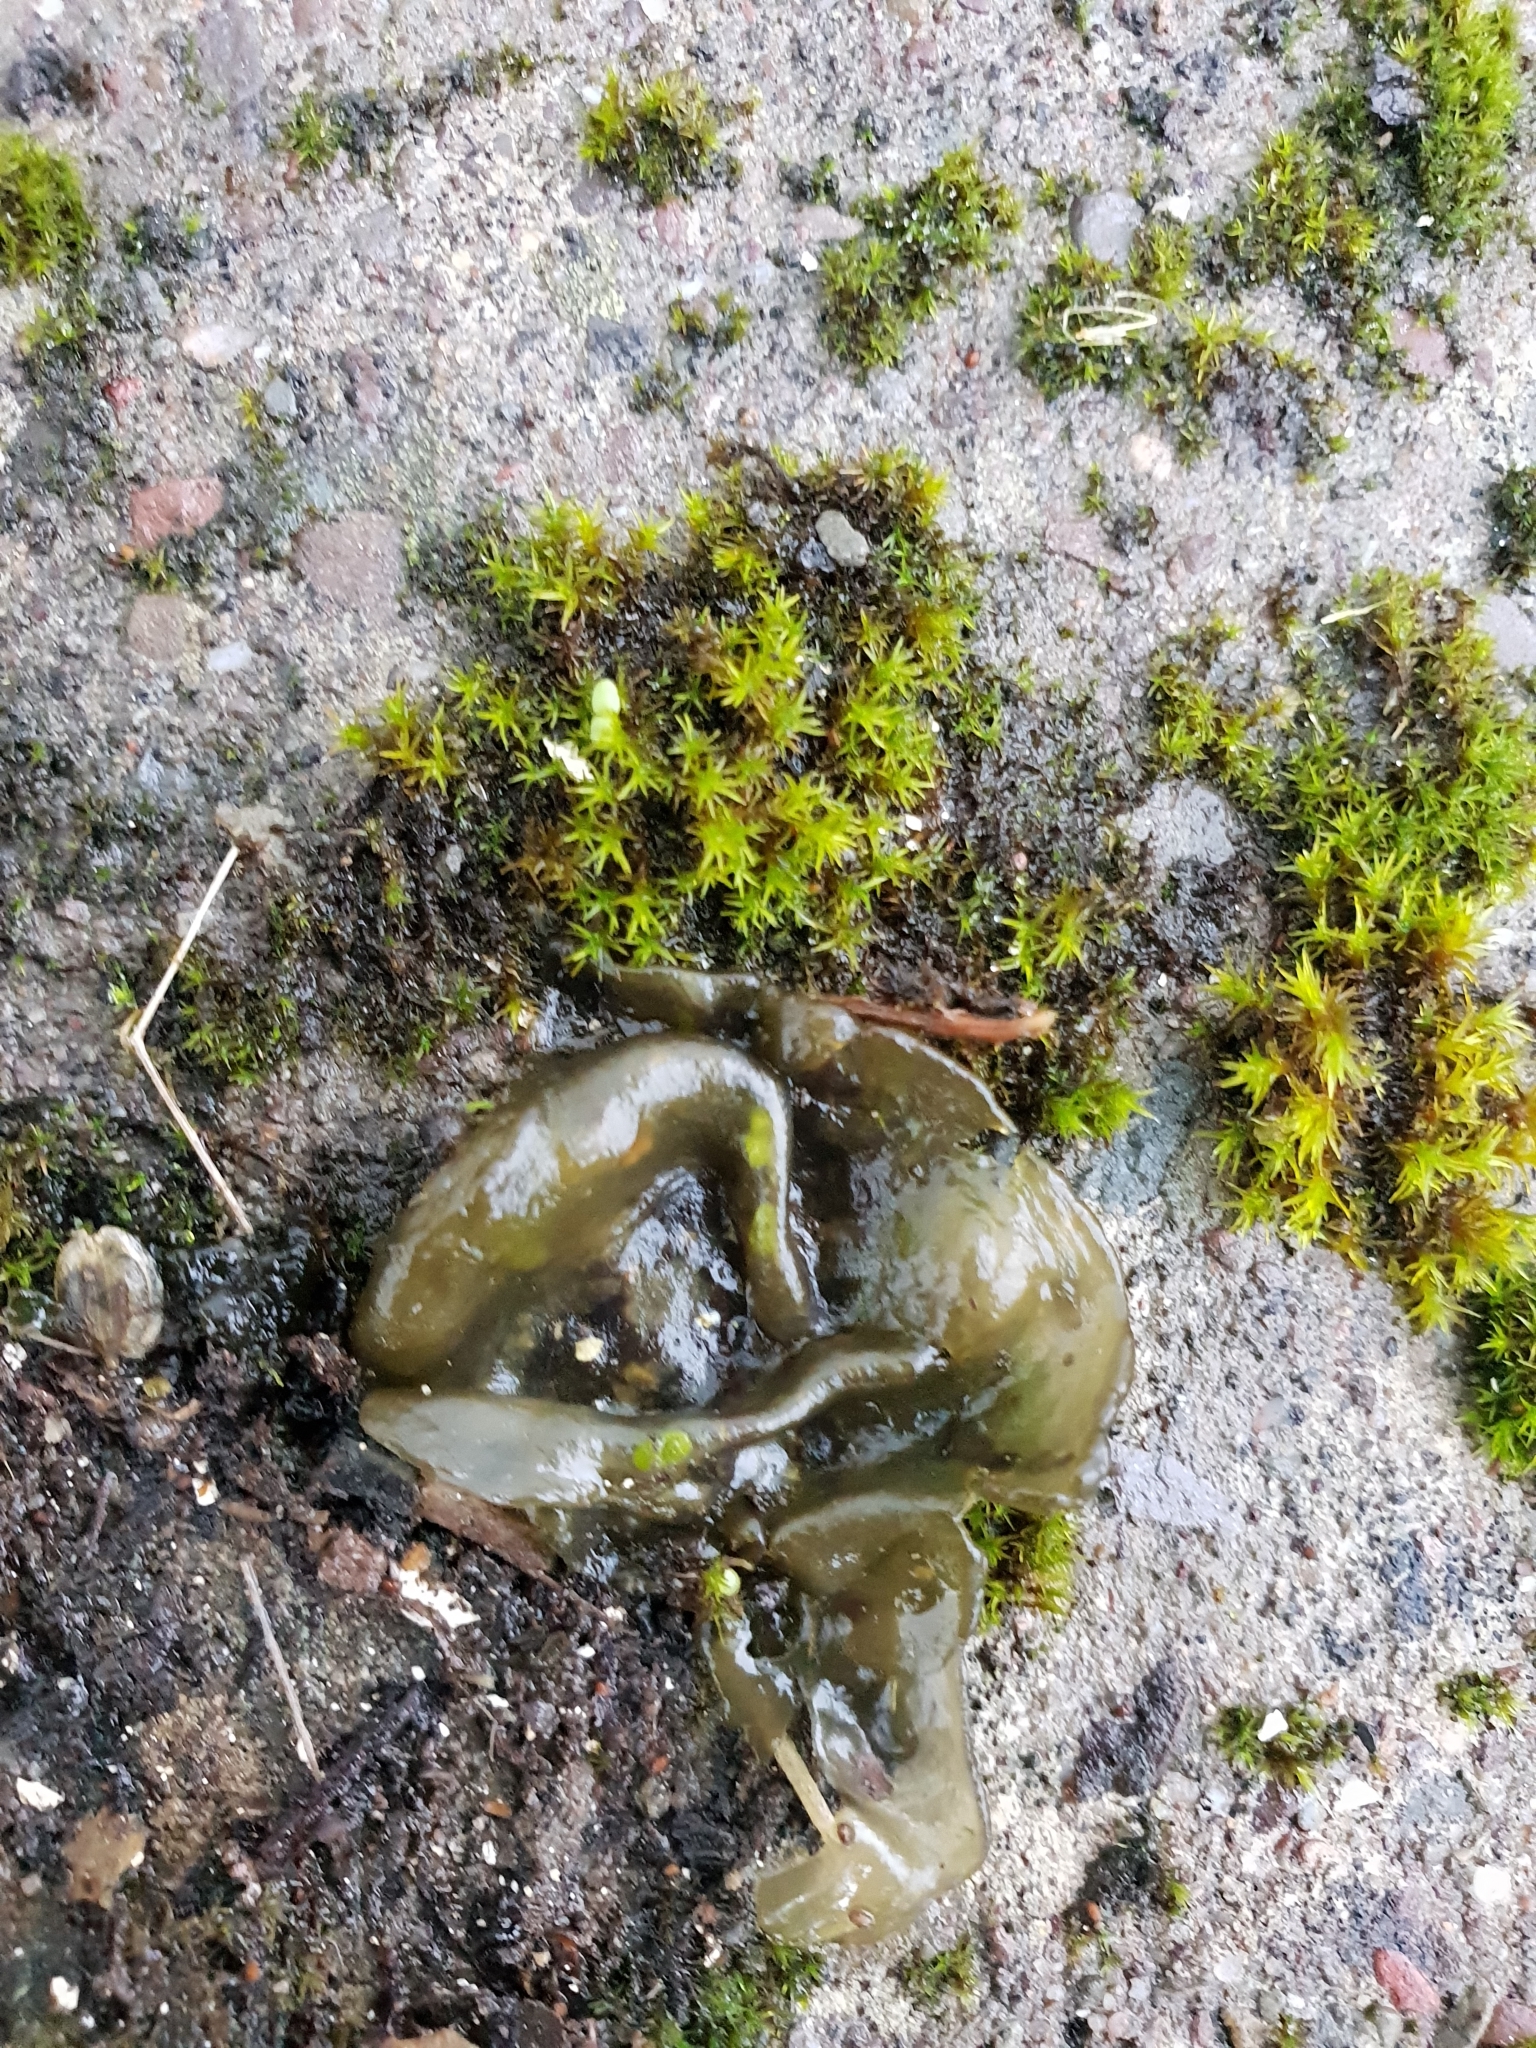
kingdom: Bacteria
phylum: Cyanobacteria
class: Cyanobacteriia
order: Cyanobacteriales
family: Nostocaceae
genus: Nostoc
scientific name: Nostoc commune
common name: Star jelly
